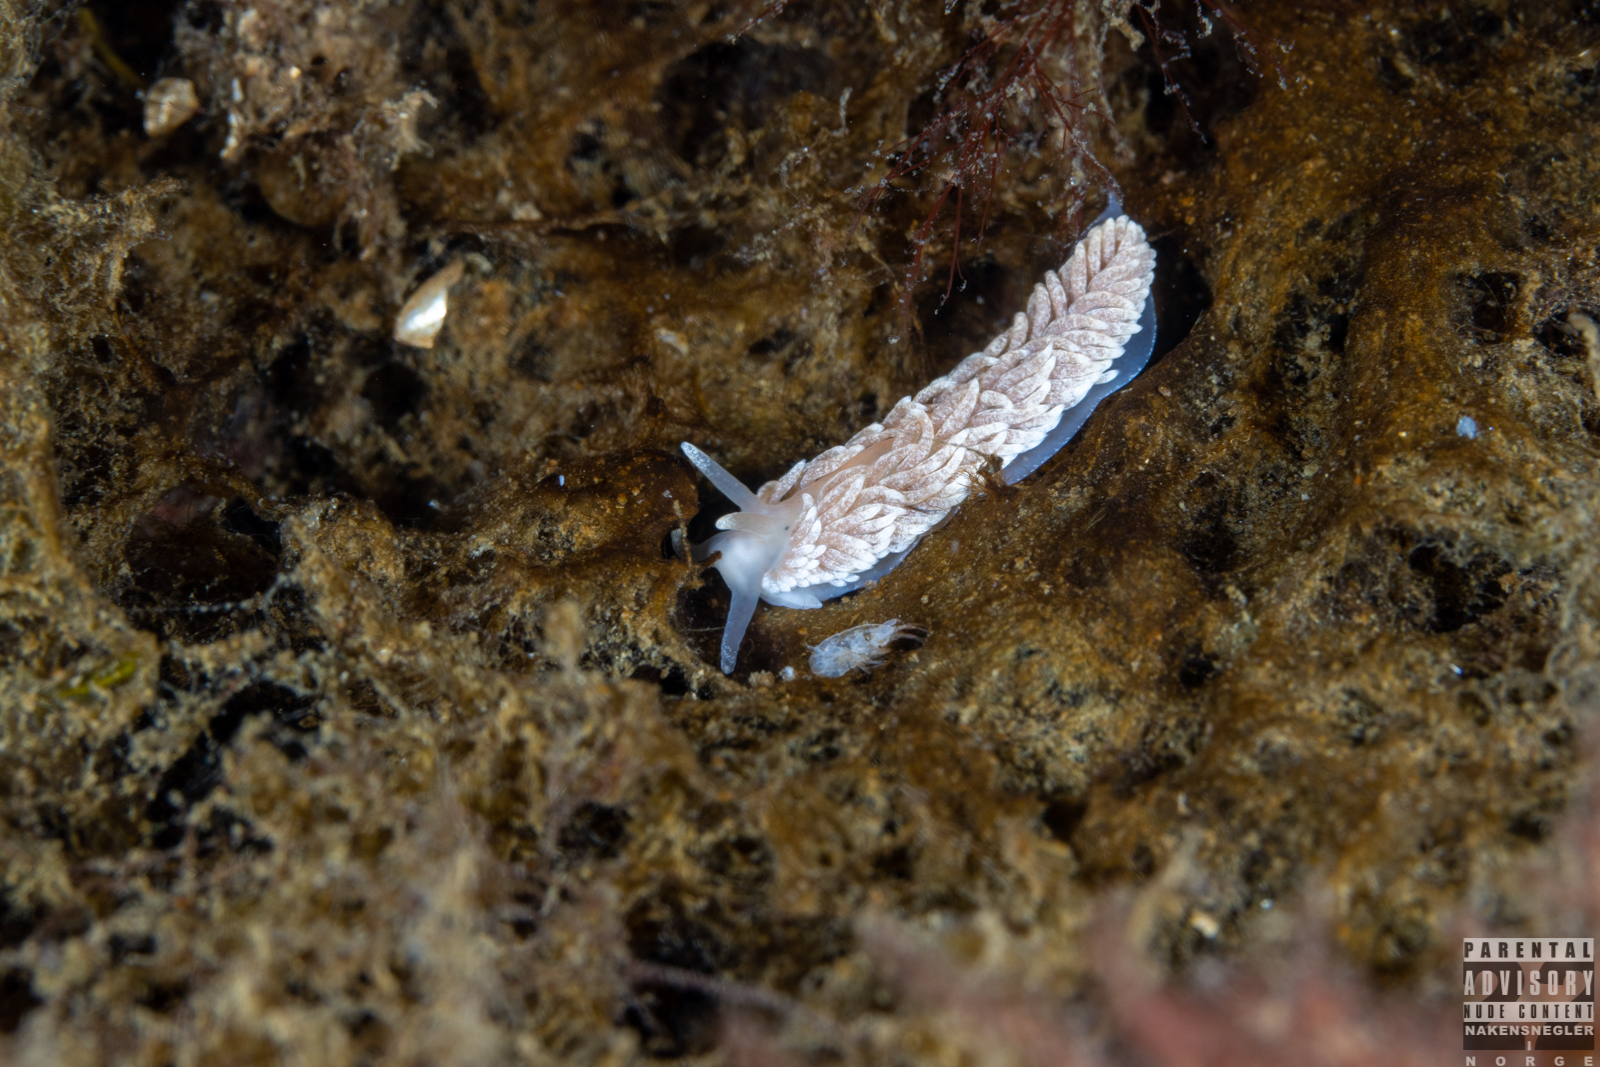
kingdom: Animalia
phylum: Mollusca
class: Gastropoda
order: Nudibranchia
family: Aeolidiidae
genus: Aeolidiella
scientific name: Aeolidiella glauca
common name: Orange-brown aeolid
